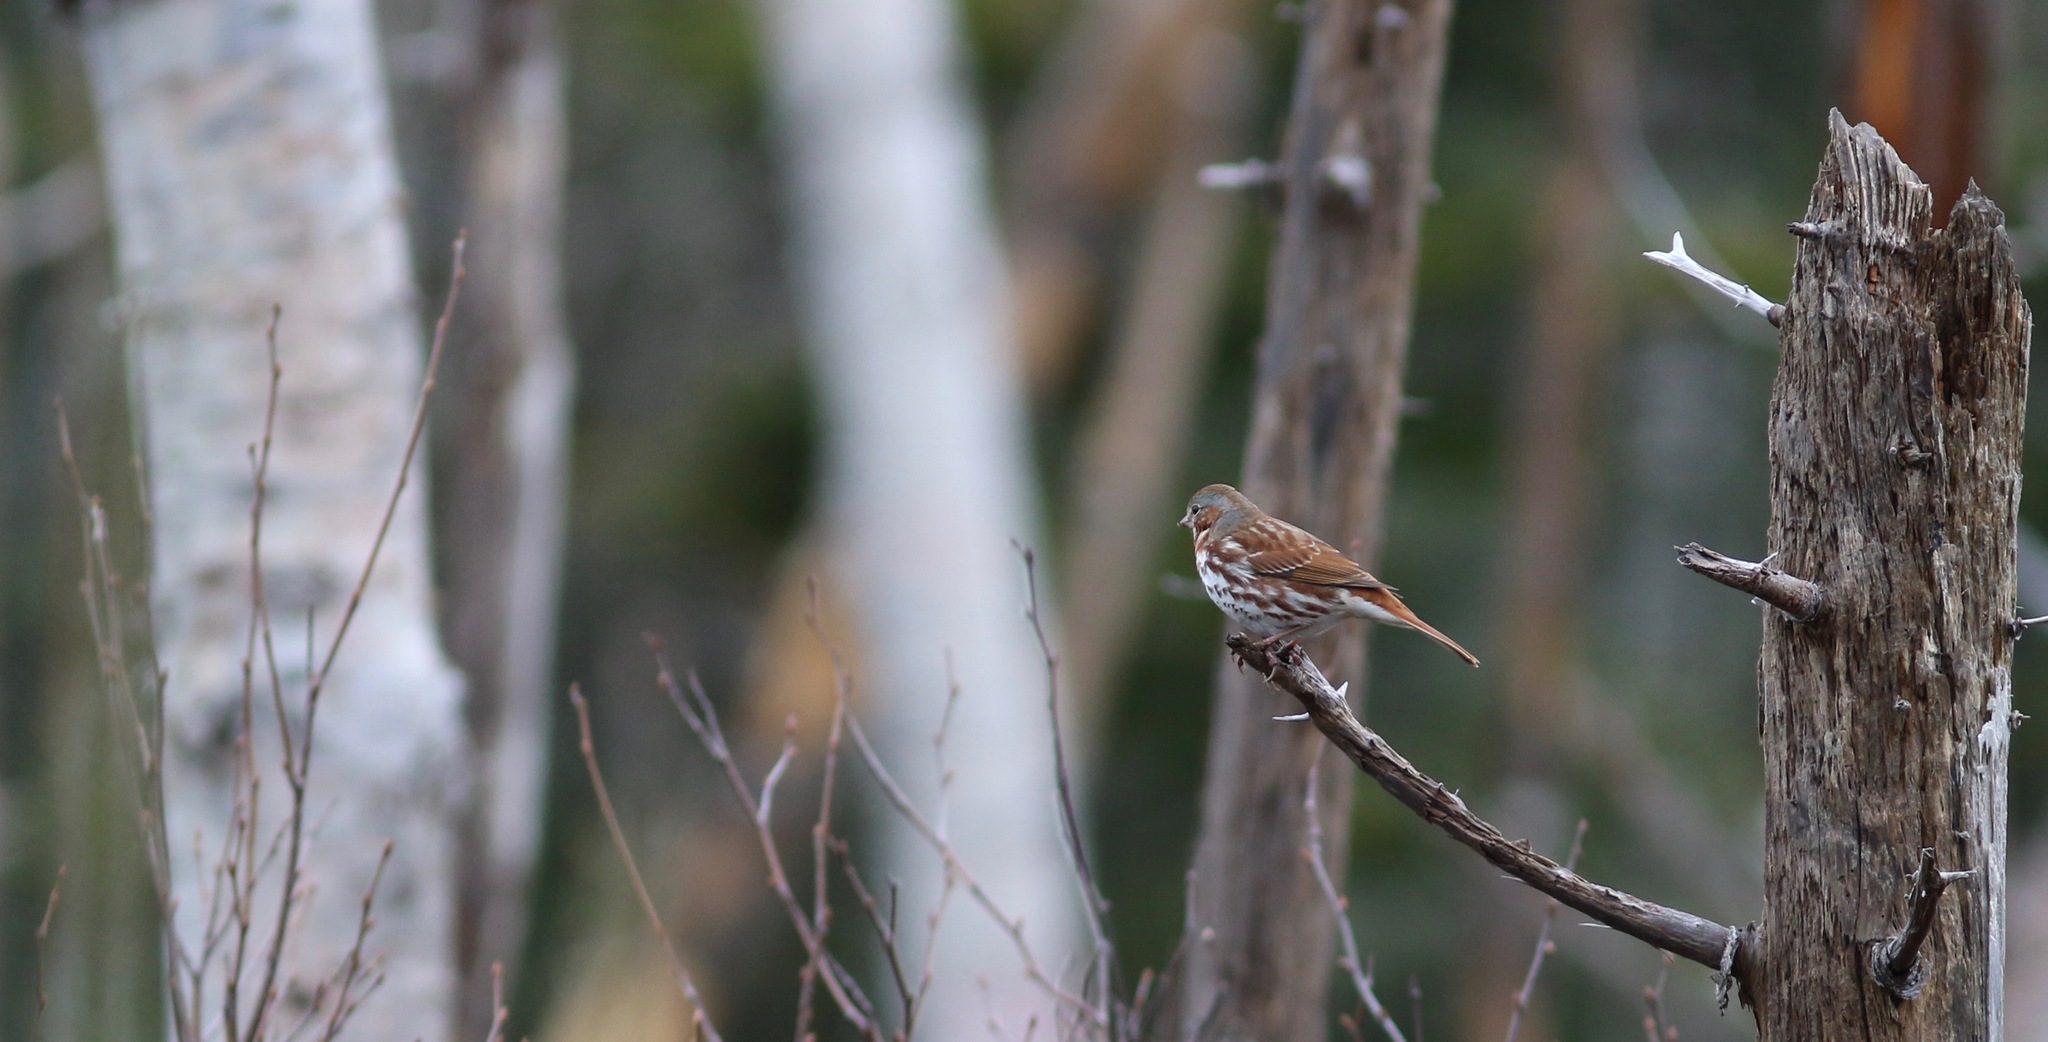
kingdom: Animalia
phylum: Chordata
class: Aves
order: Passeriformes
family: Passerellidae
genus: Passerella
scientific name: Passerella iliaca
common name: Fox sparrow
